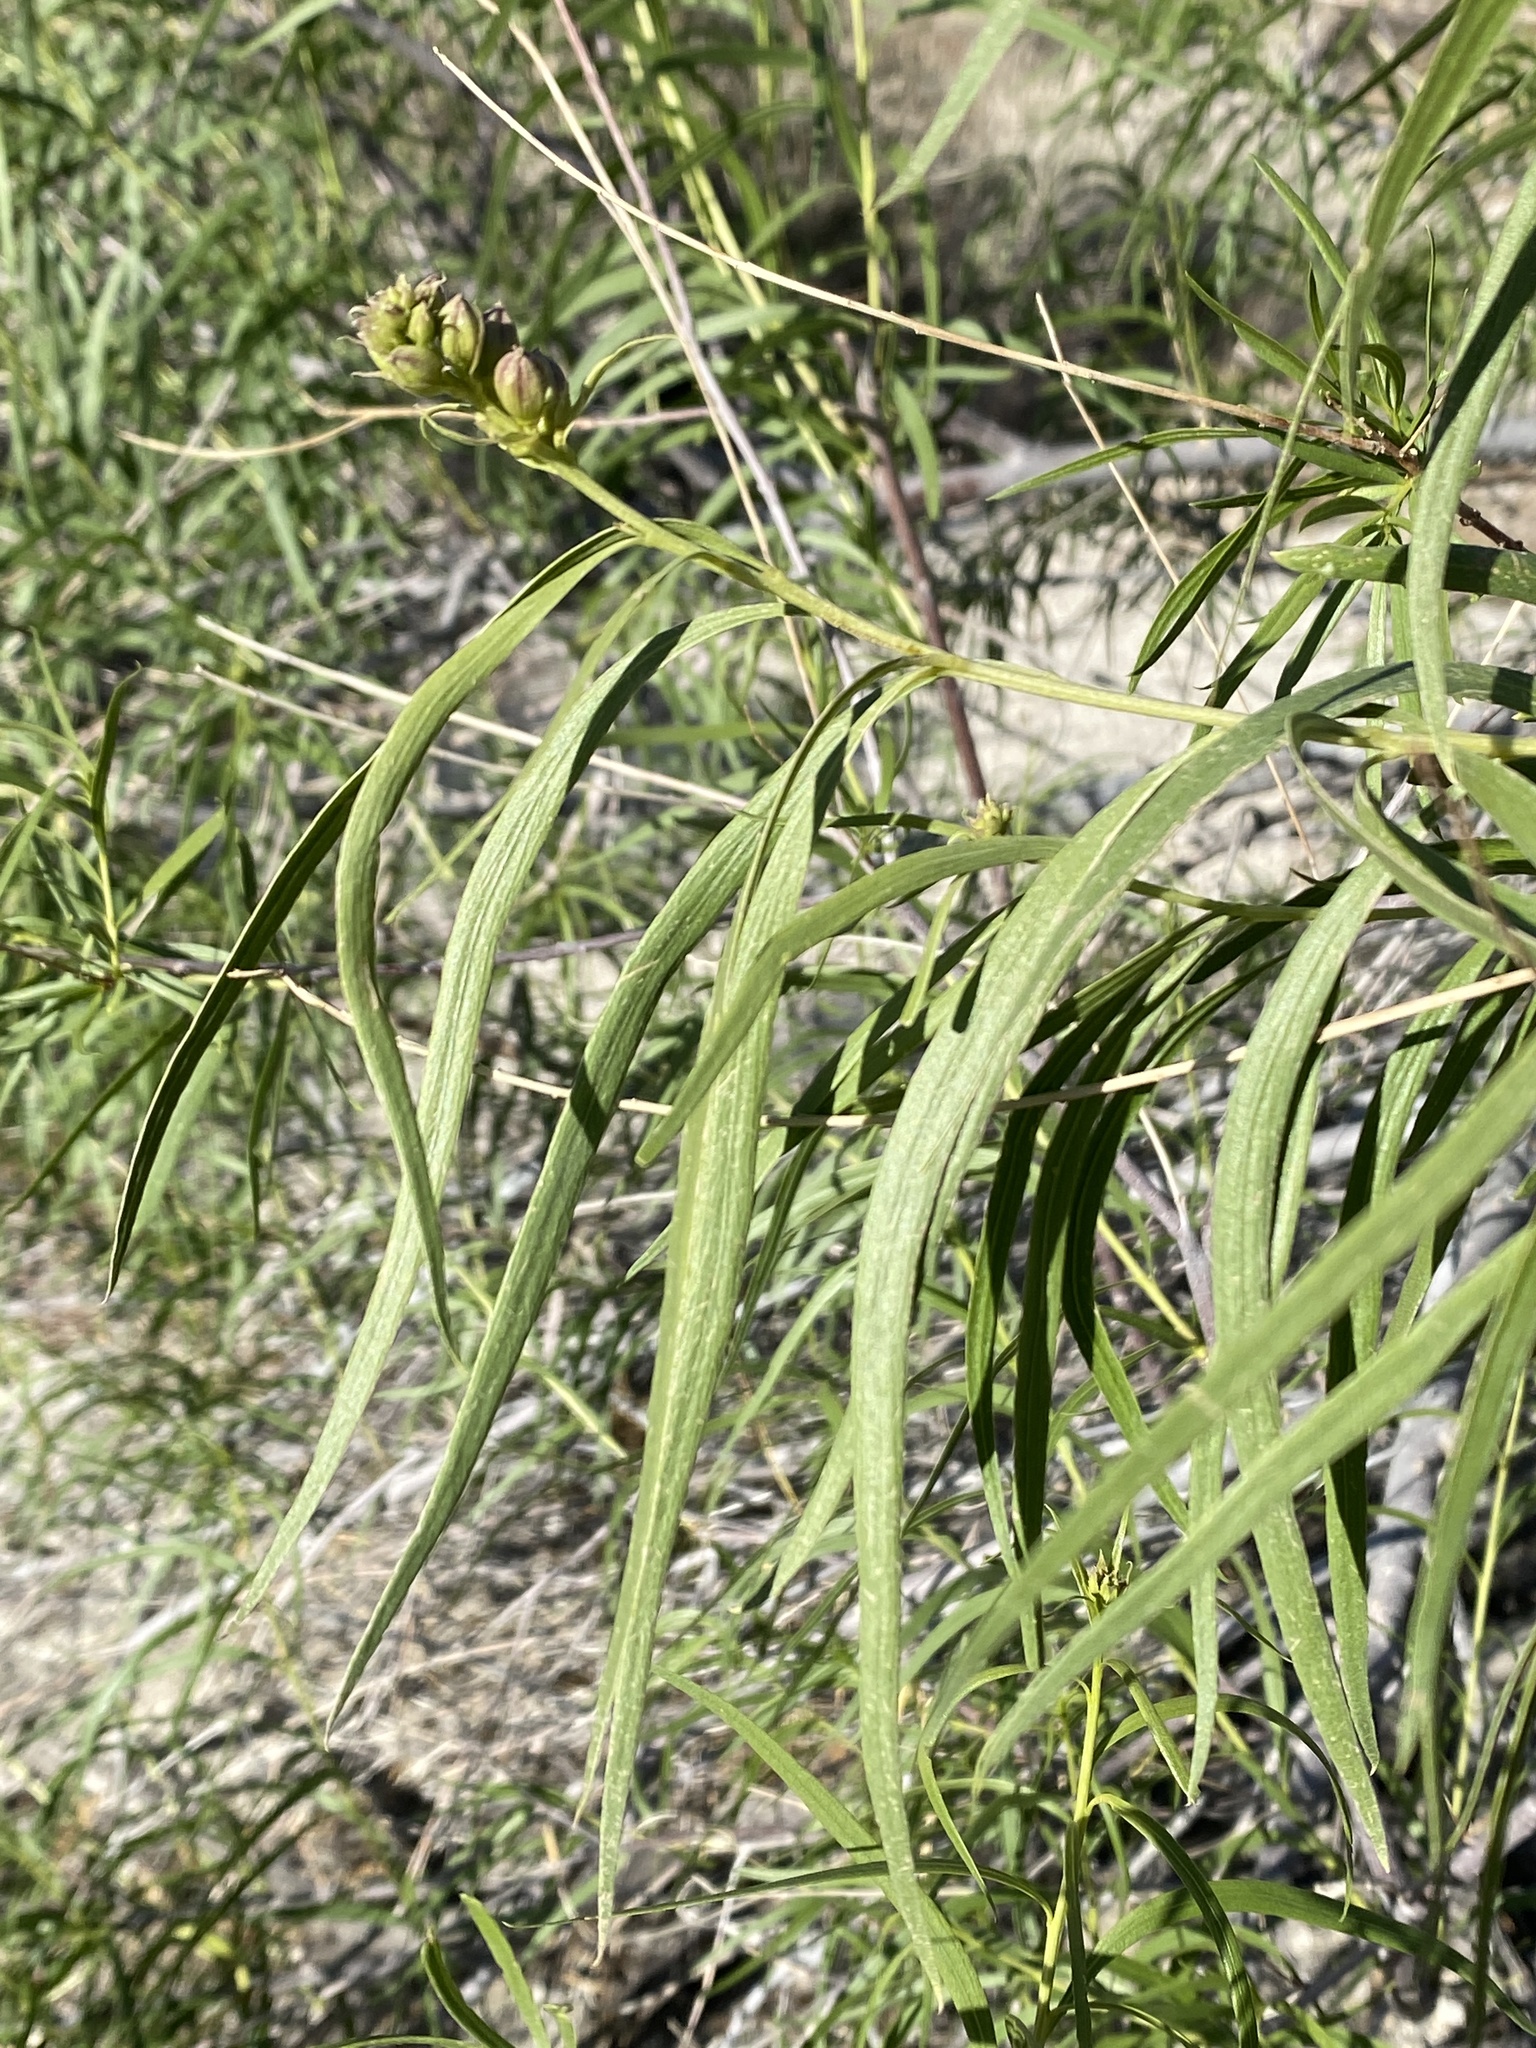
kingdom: Plantae
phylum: Tracheophyta
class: Magnoliopsida
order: Lamiales
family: Bignoniaceae
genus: Chilopsis
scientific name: Chilopsis linearis
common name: Desert-willow
